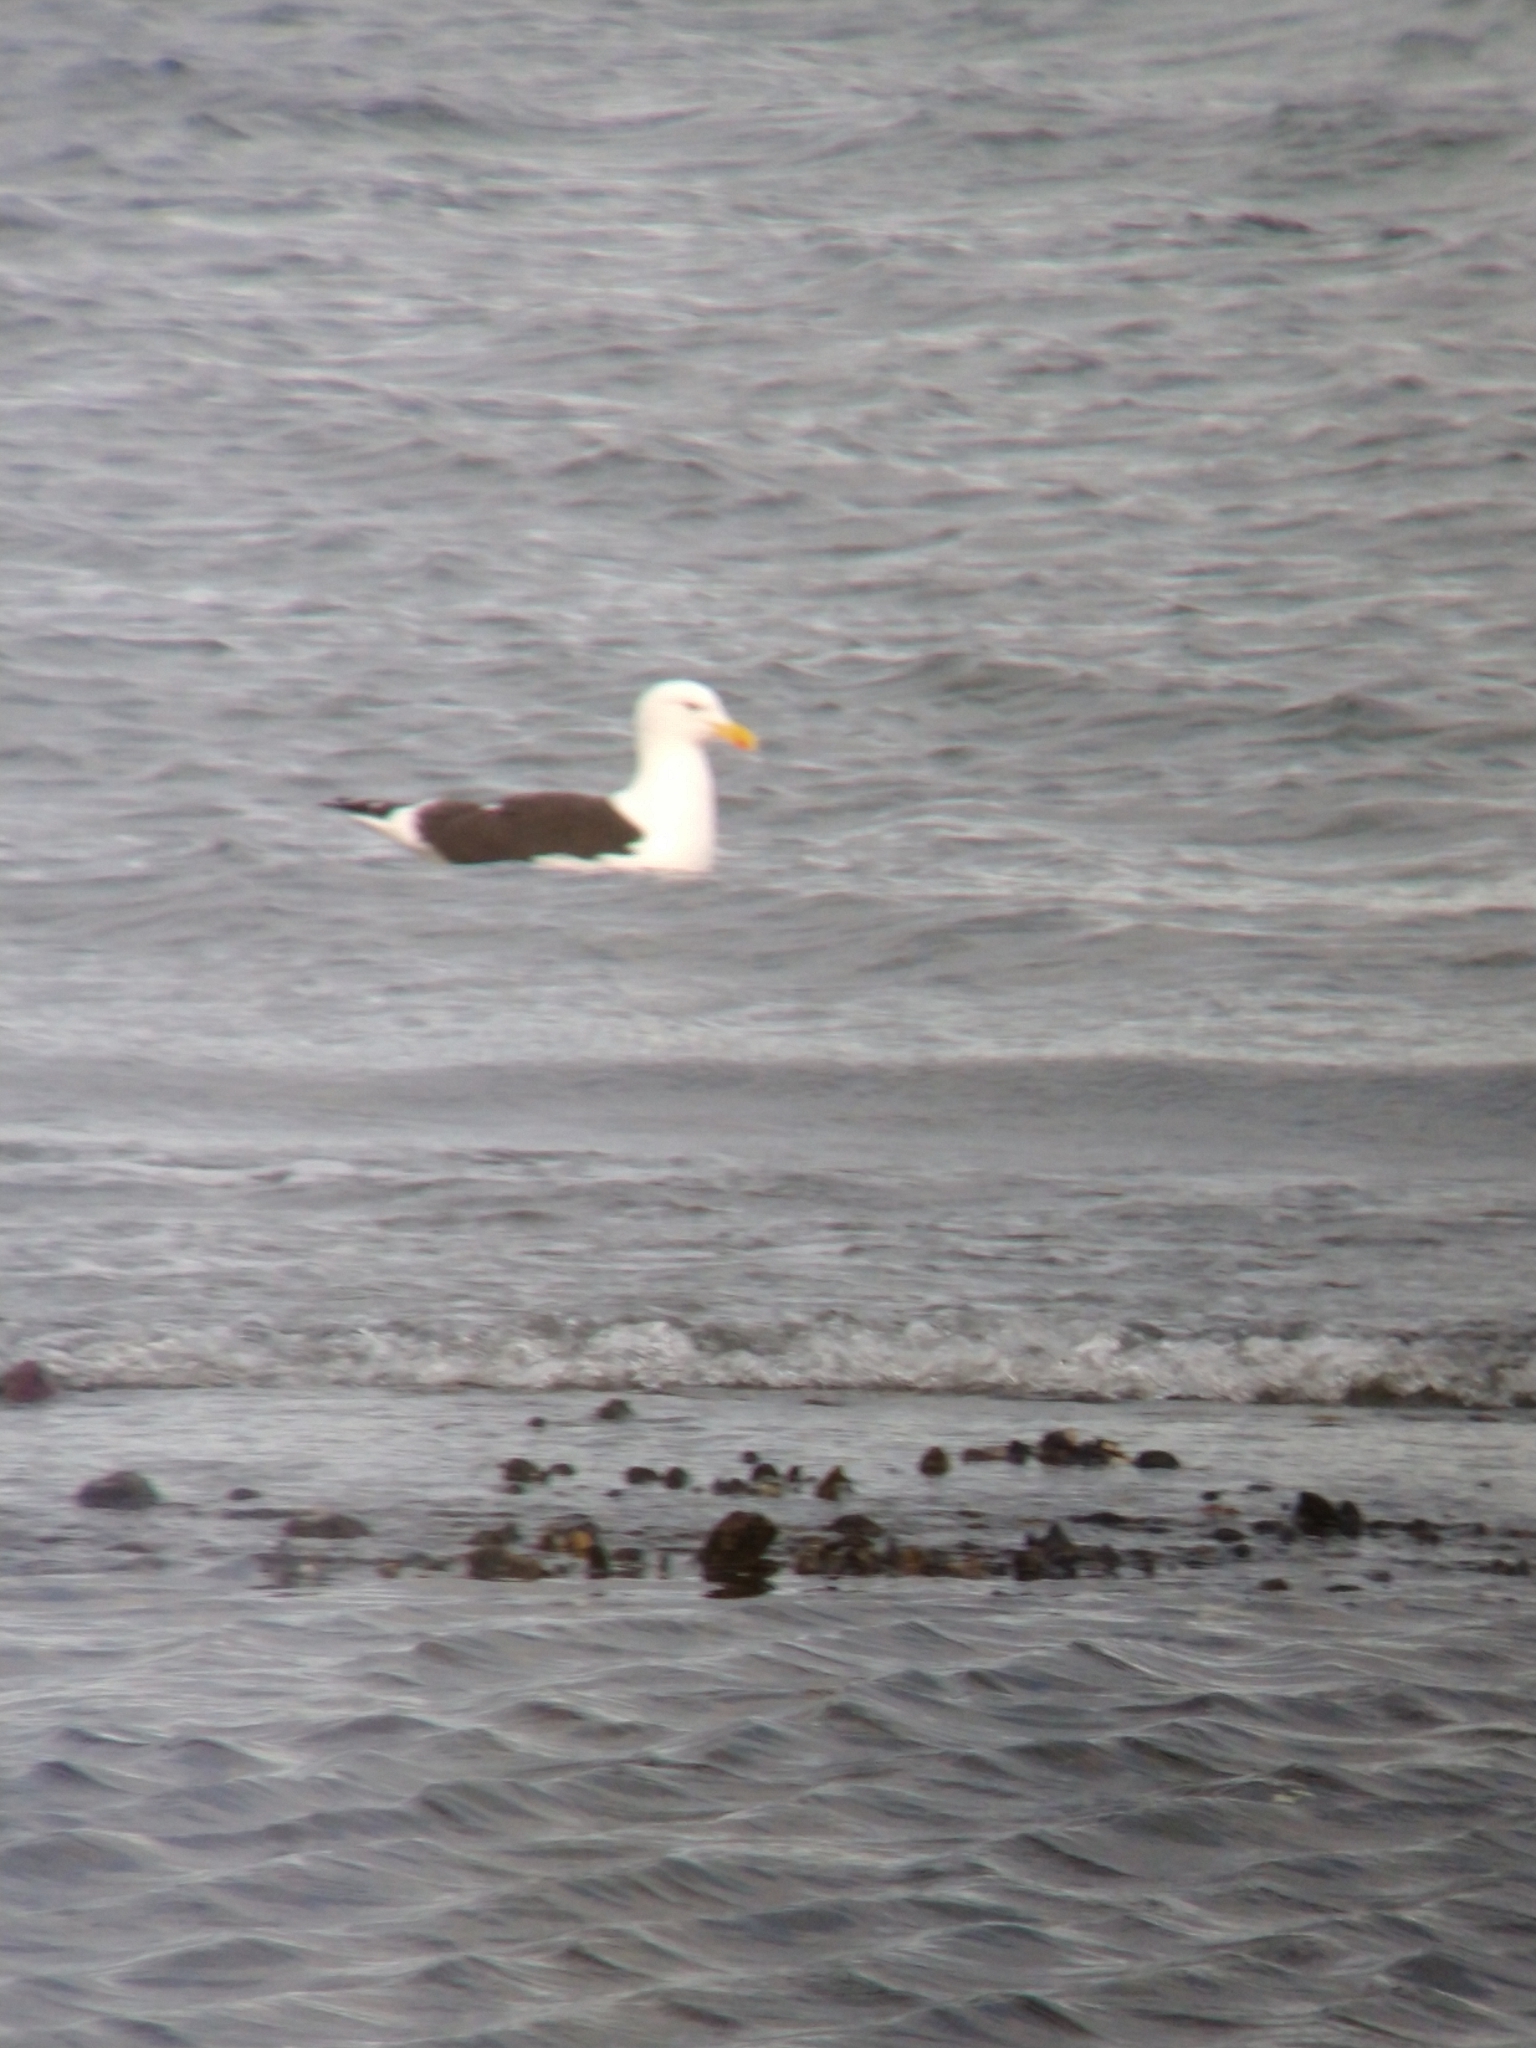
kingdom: Animalia
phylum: Chordata
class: Aves
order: Charadriiformes
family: Laridae
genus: Larus
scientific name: Larus dominicanus
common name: Kelp gull
